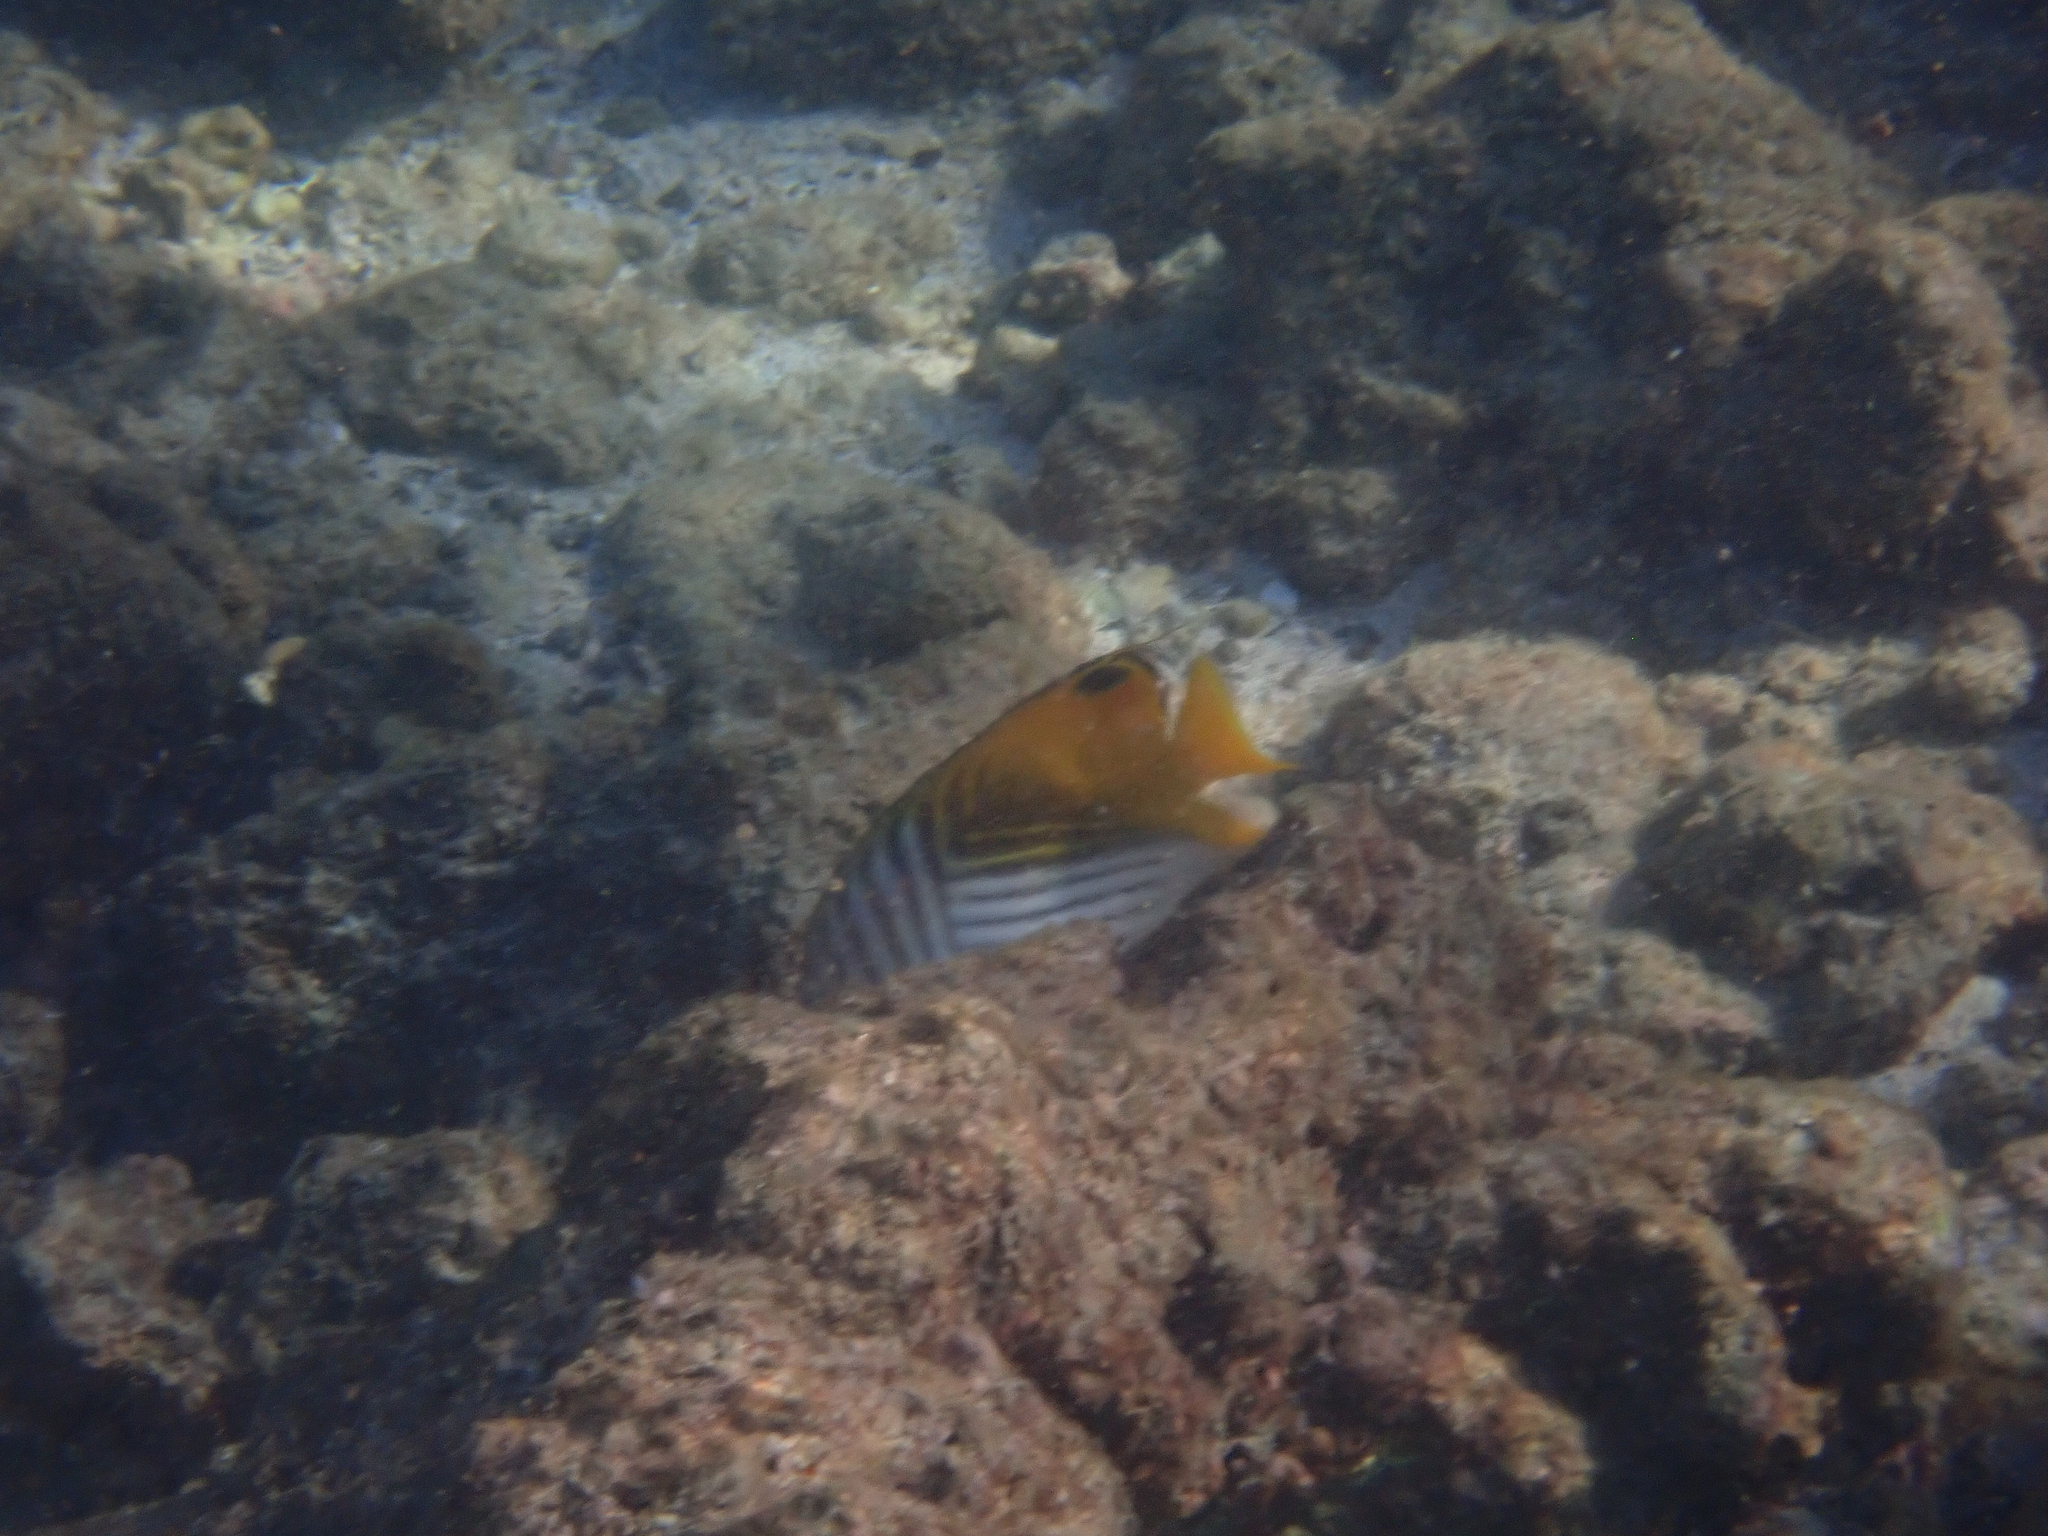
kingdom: Animalia
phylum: Chordata
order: Perciformes
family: Chaetodontidae
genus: Chaetodon
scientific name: Chaetodon auriga
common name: Threadfin butterflyfish
